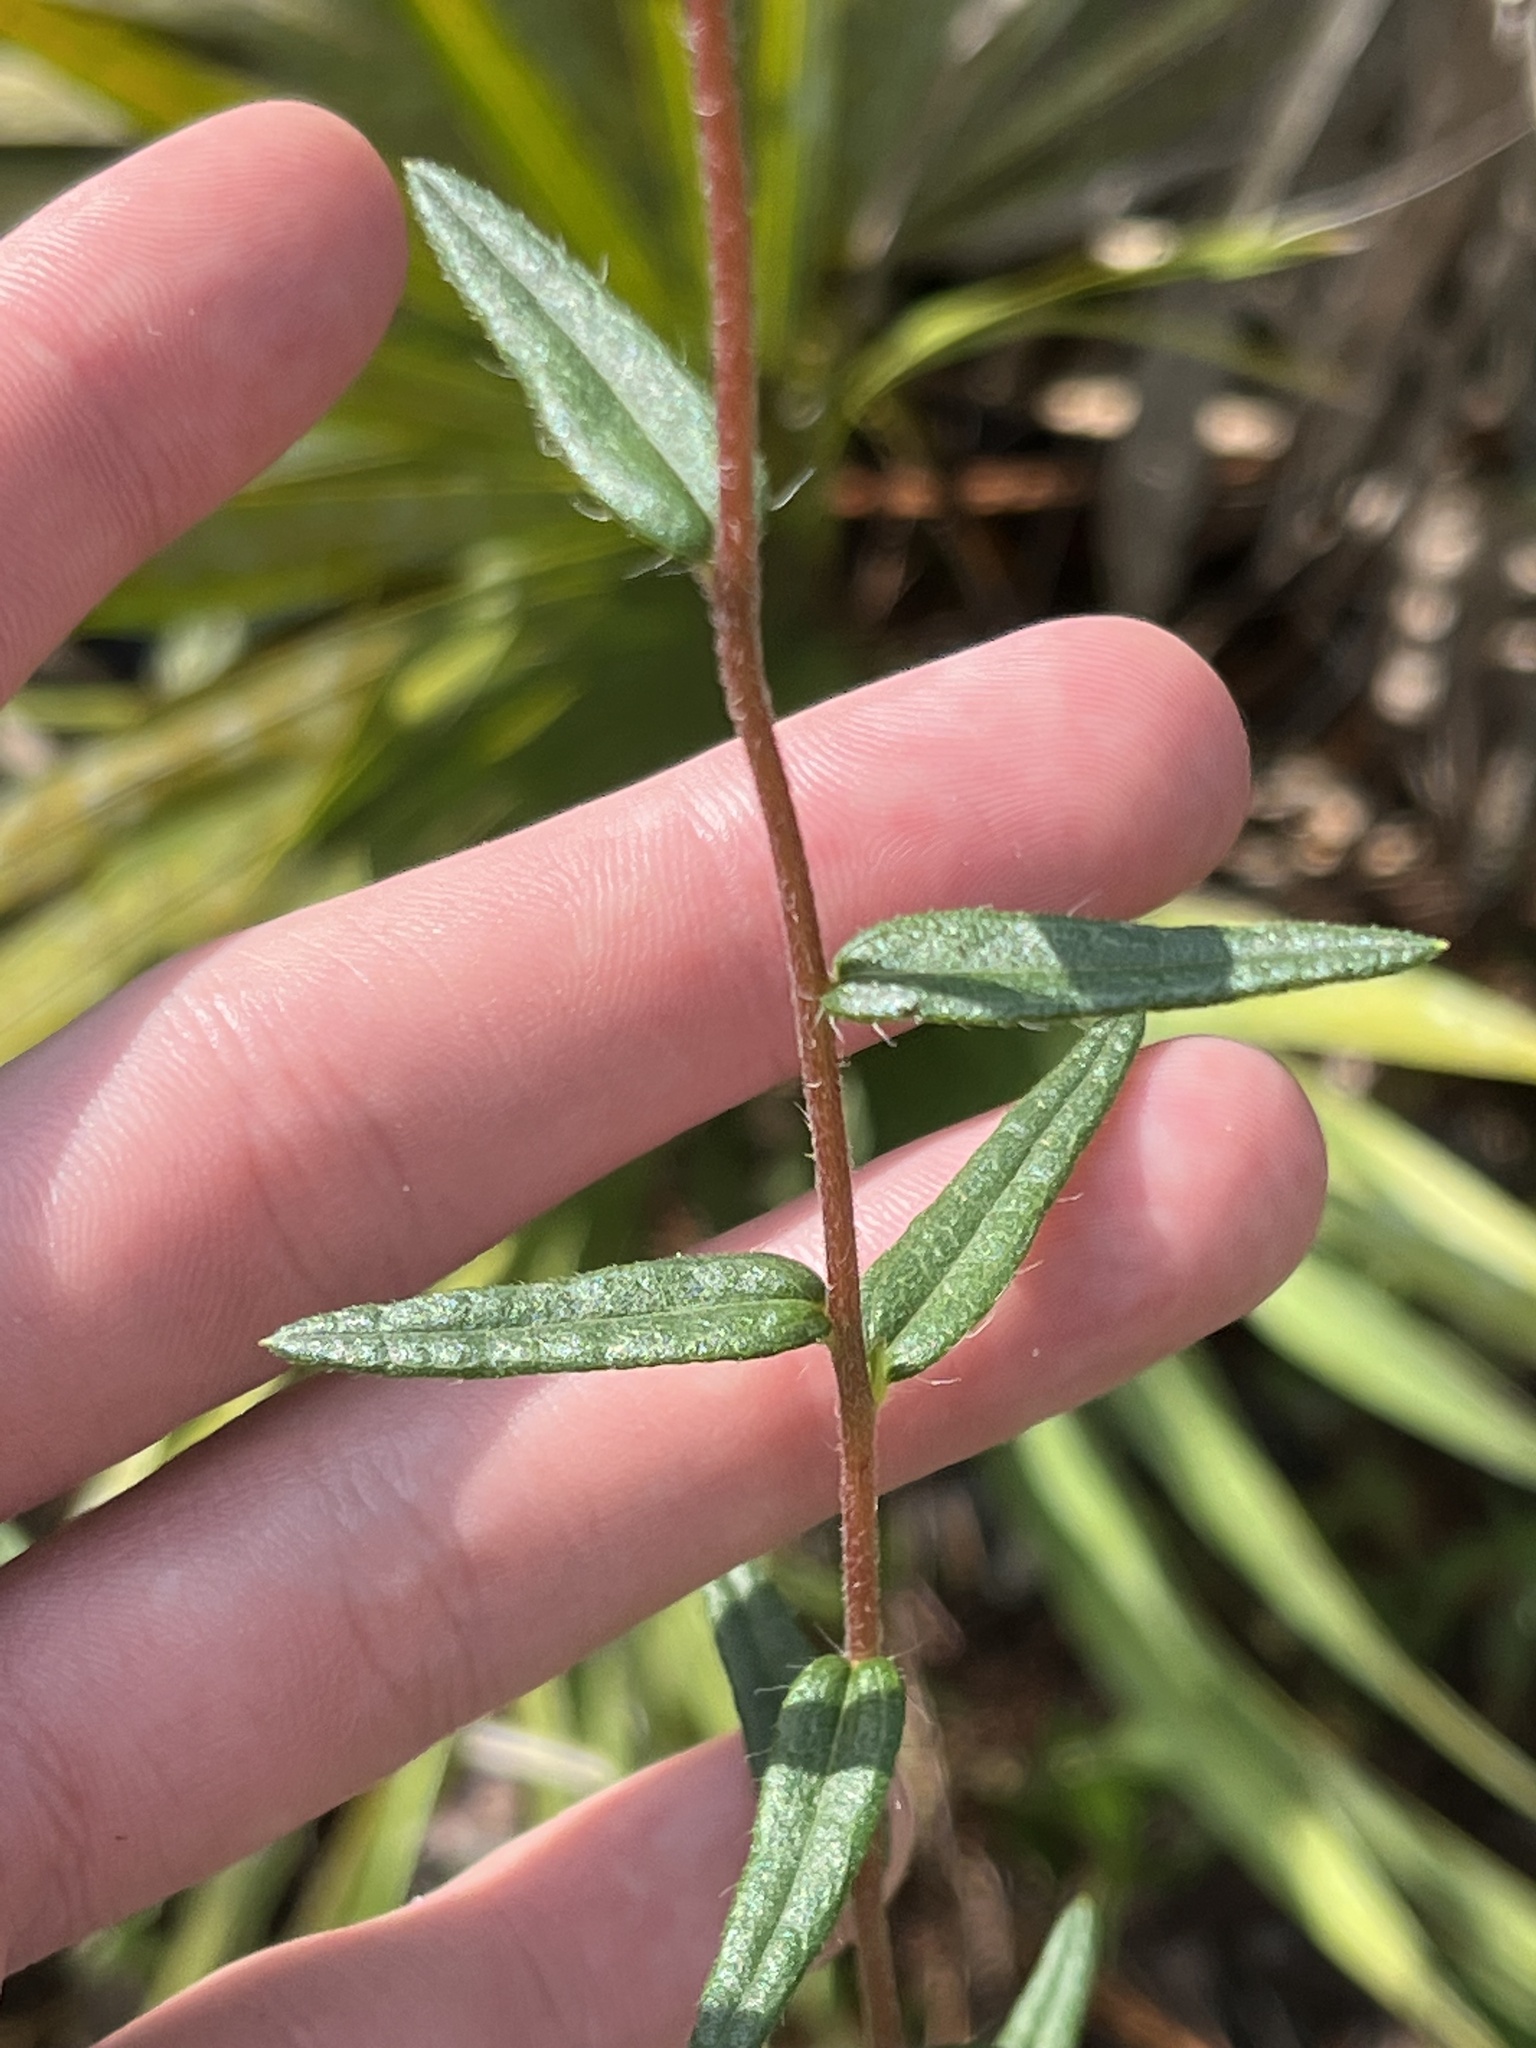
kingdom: Plantae
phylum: Tracheophyta
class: Magnoliopsida
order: Asterales
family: Asteraceae
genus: Phoebanthus
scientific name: Phoebanthus grandiflora
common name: Florida false sunflower
